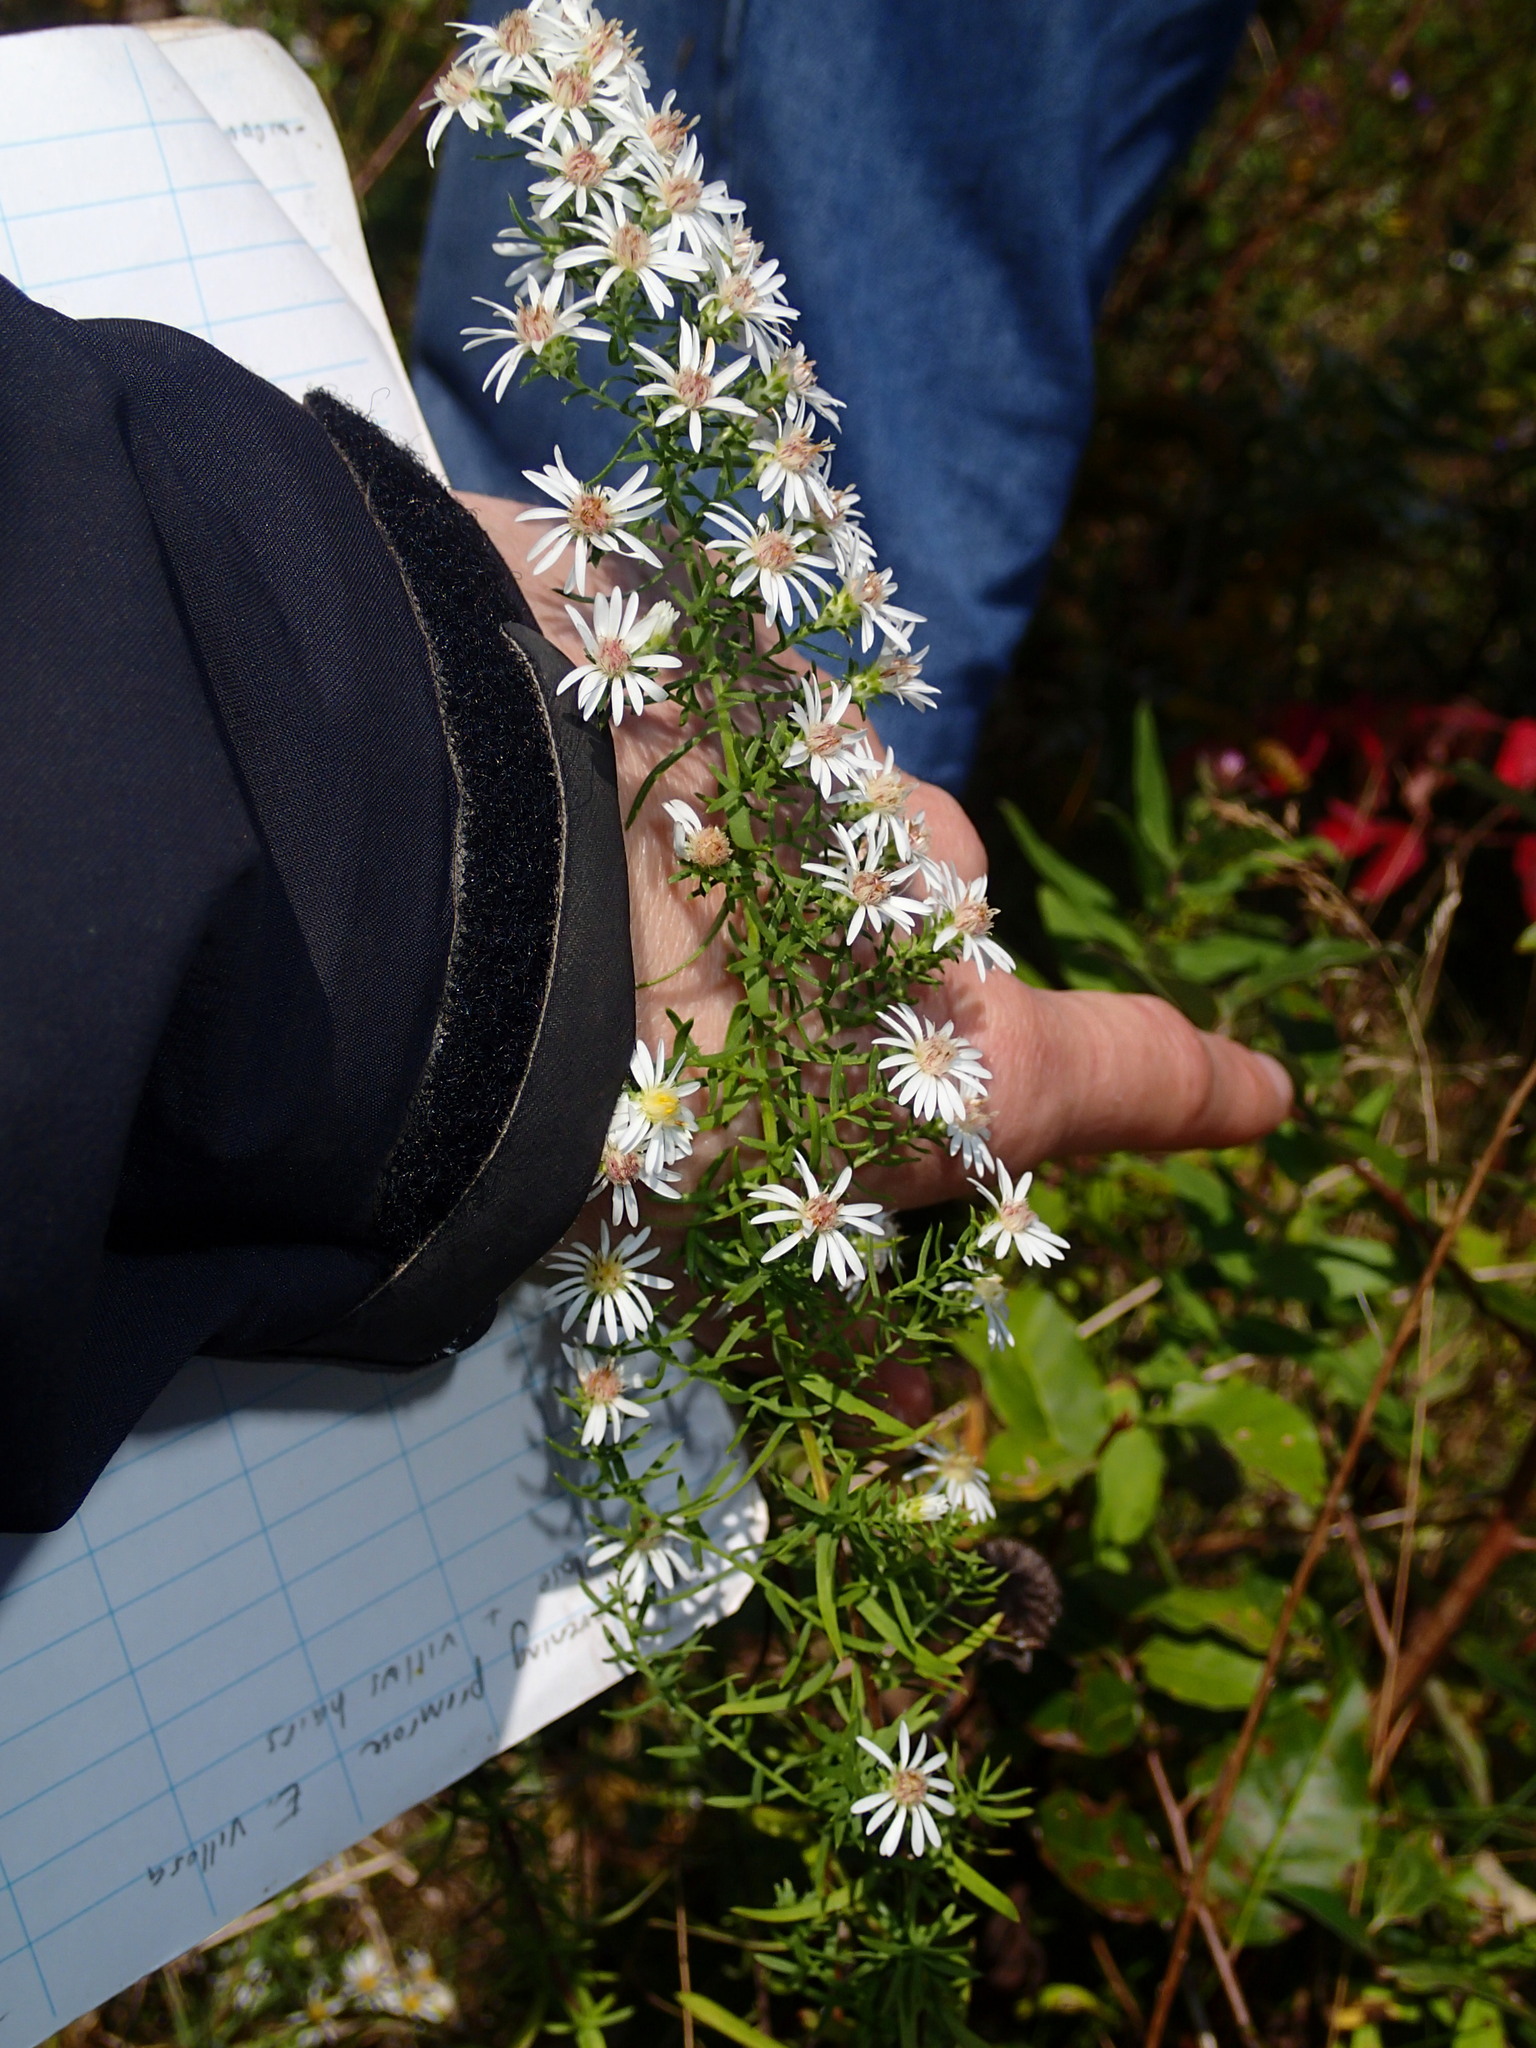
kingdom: Plantae
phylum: Tracheophyta
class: Magnoliopsida
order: Asterales
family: Asteraceae
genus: Symphyotrichum
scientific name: Symphyotrichum ericoides
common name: Heath aster
